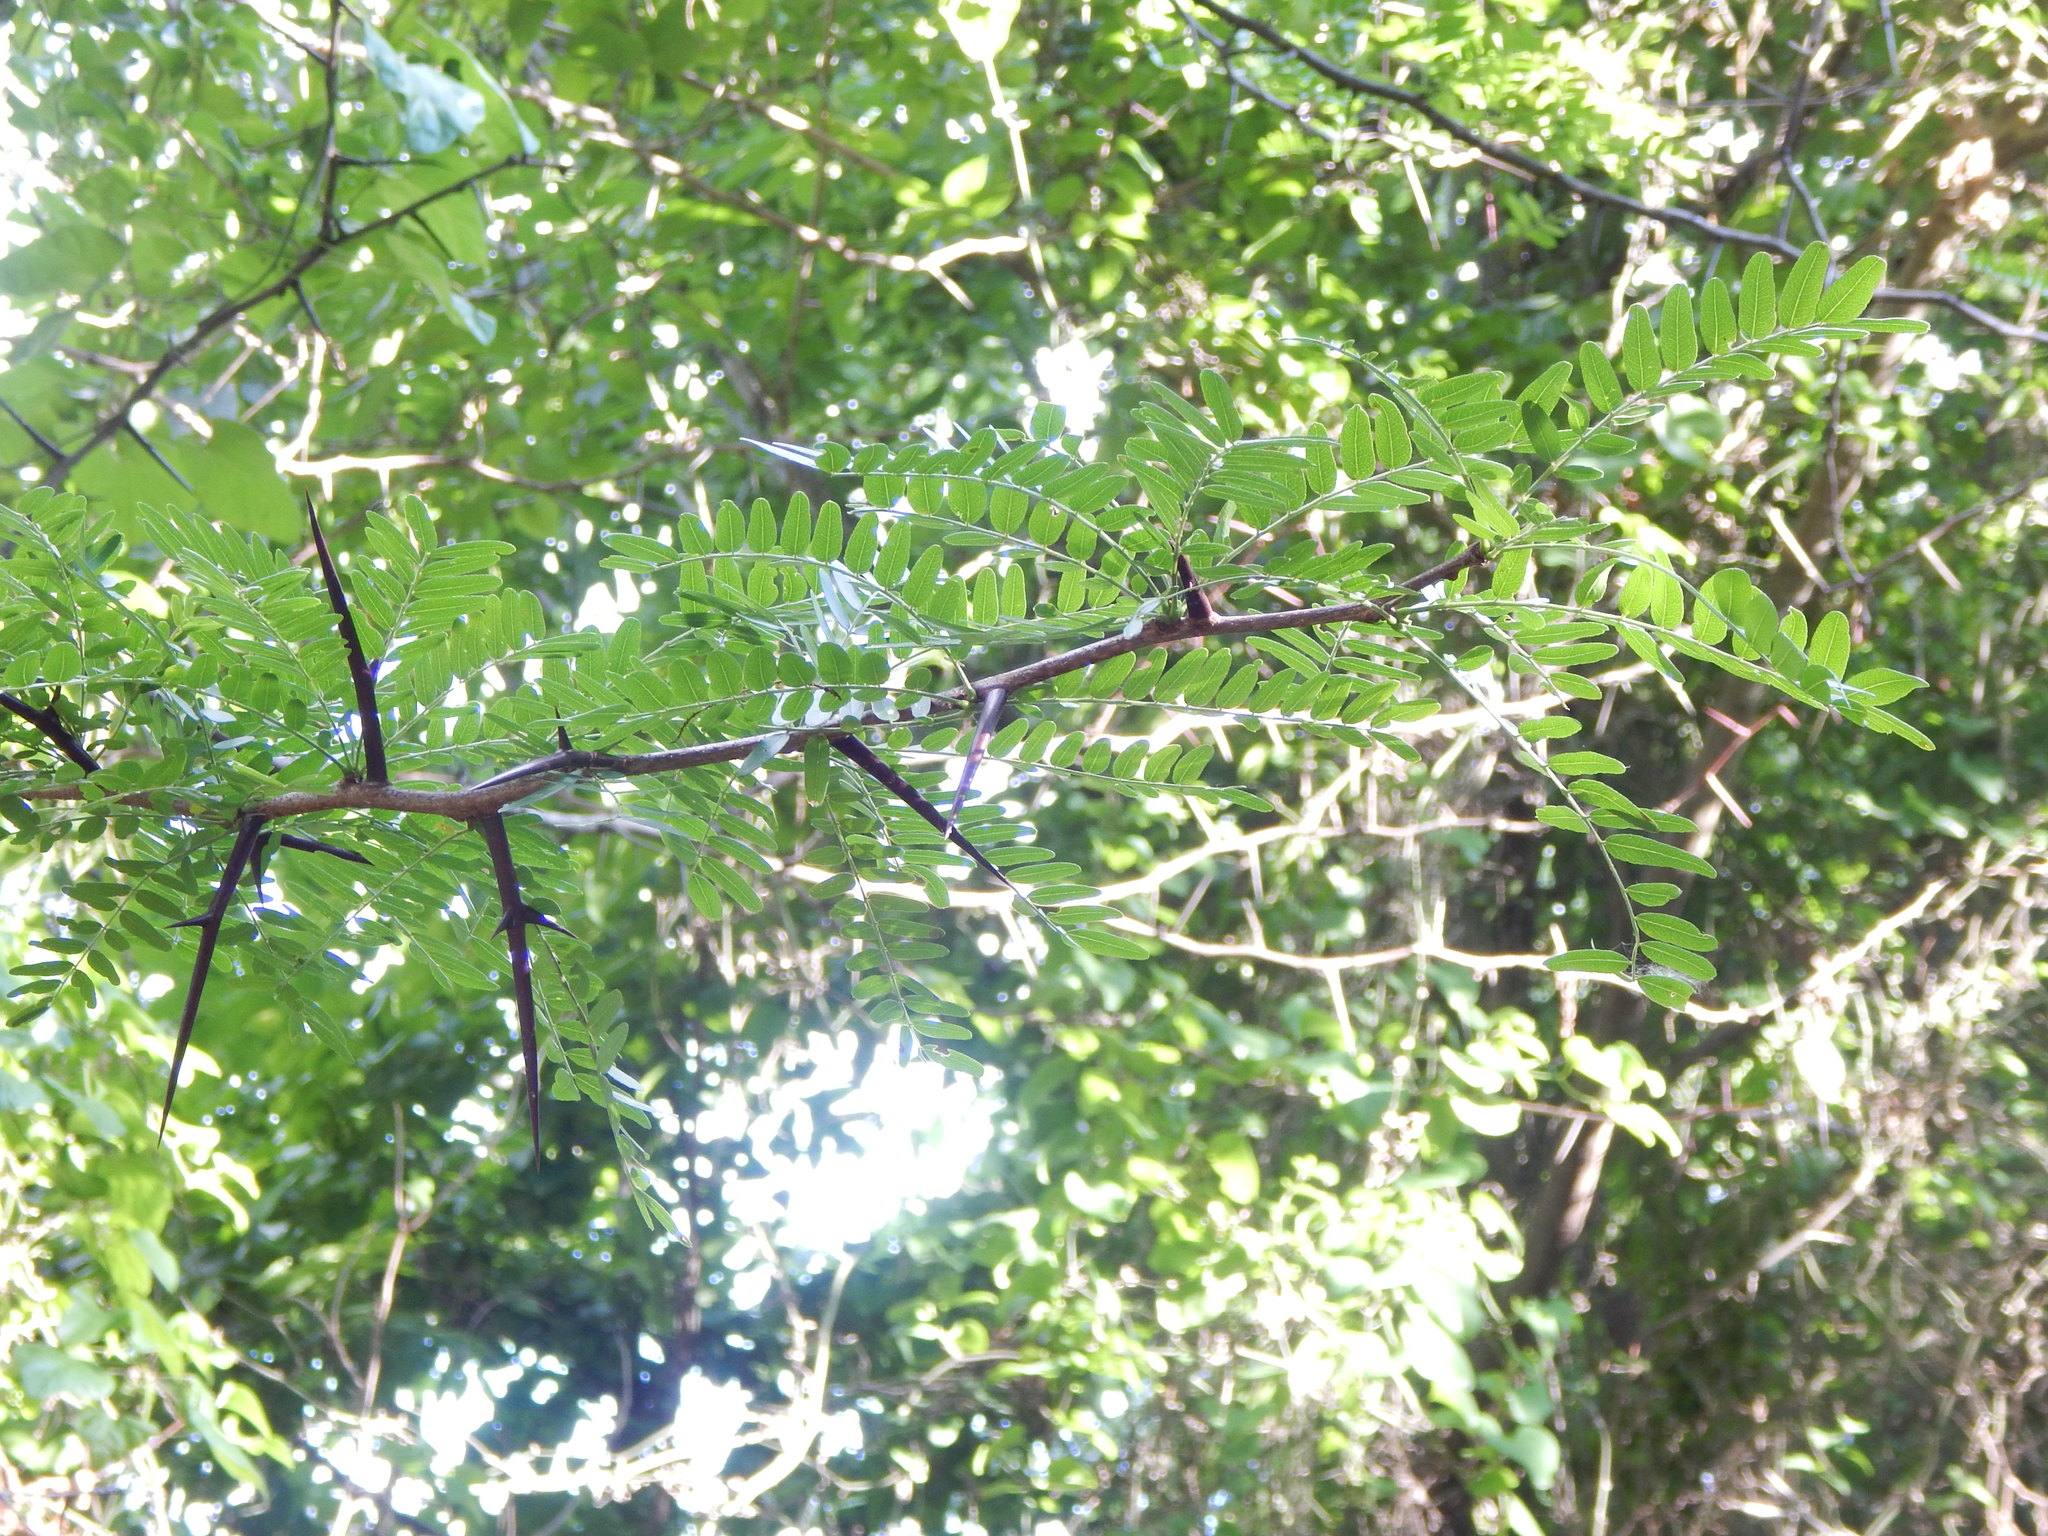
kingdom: Plantae
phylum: Tracheophyta
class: Magnoliopsida
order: Fabales
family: Fabaceae
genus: Gleditsia
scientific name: Gleditsia triacanthos
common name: Common honeylocust
